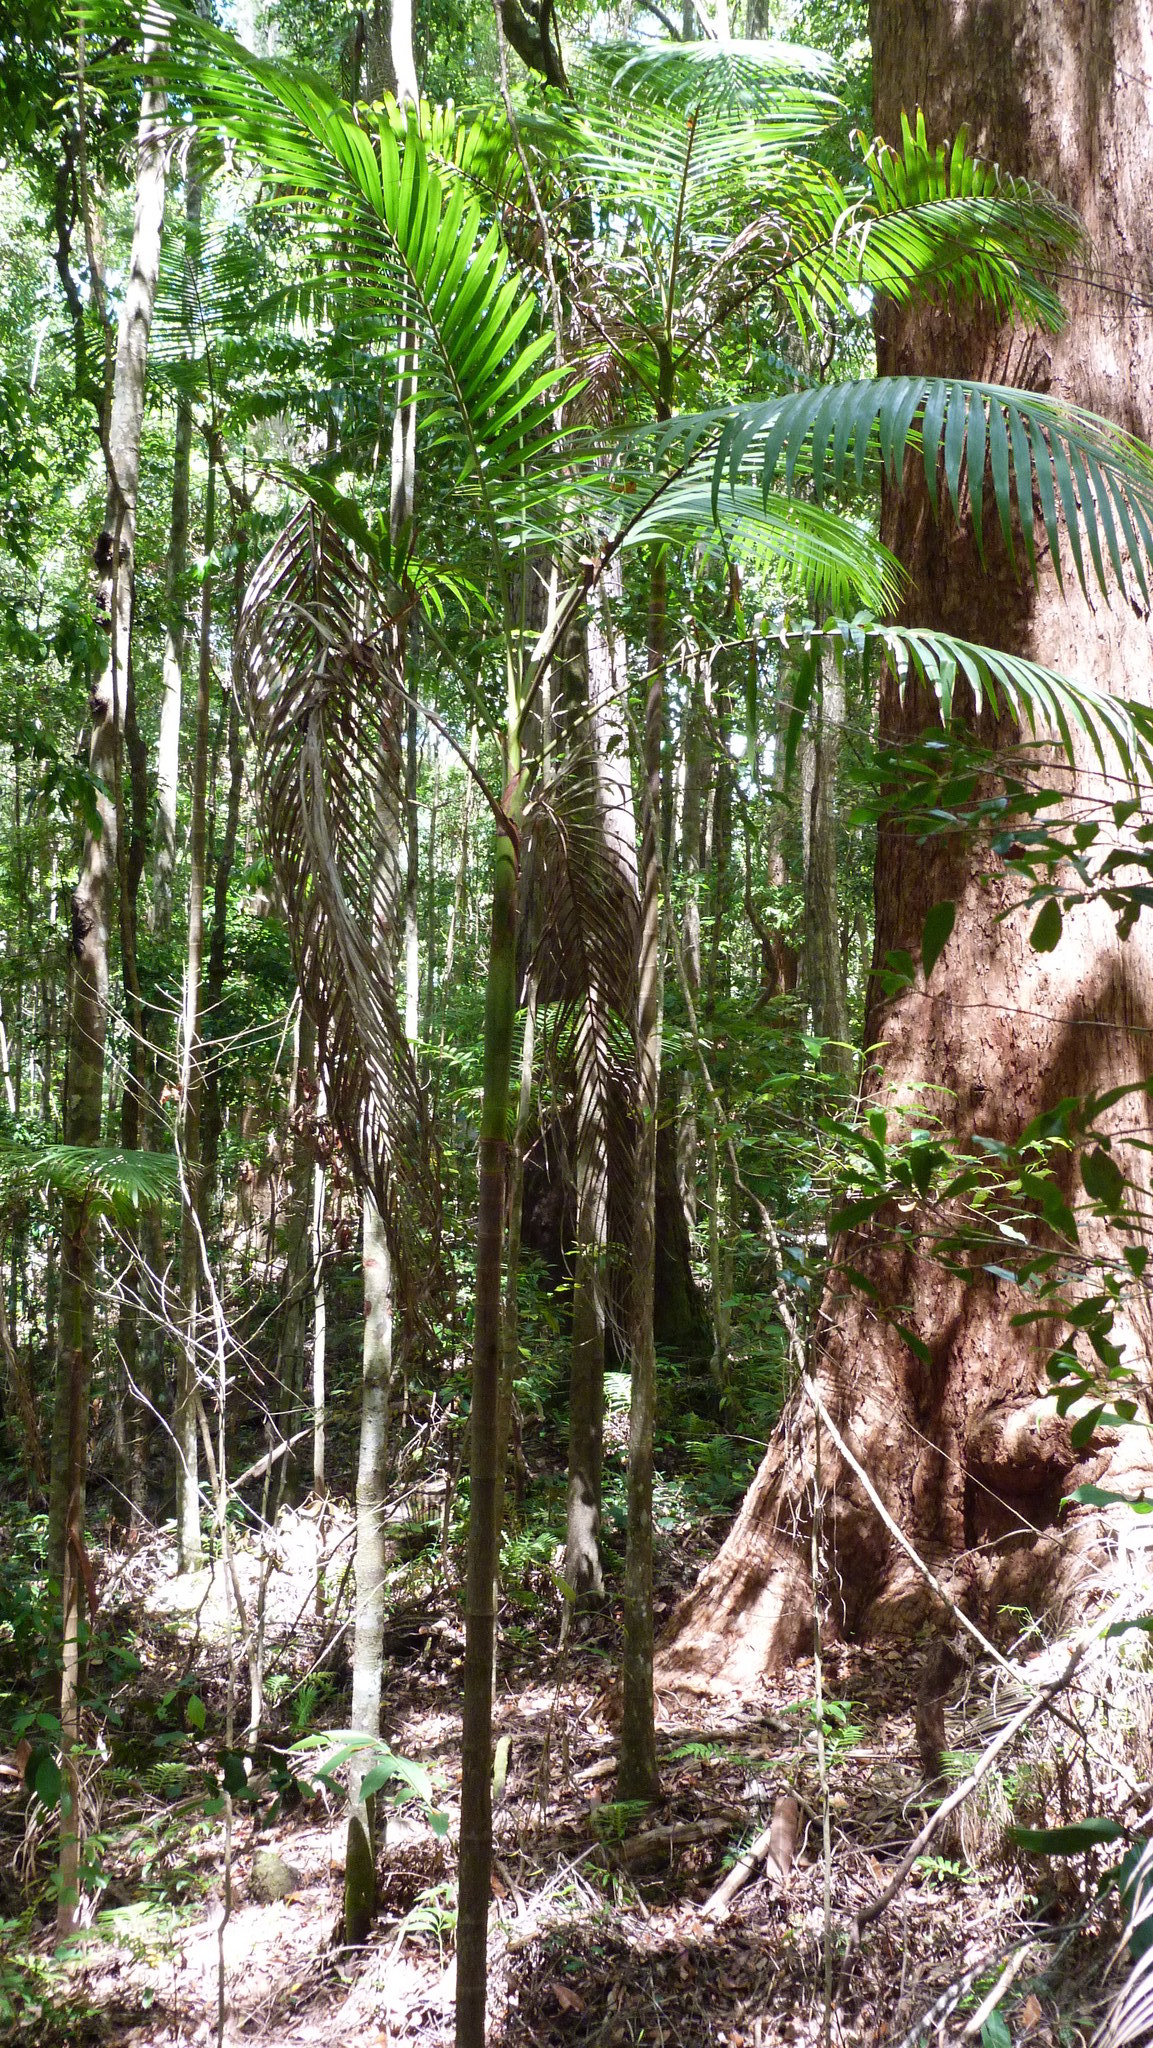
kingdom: Plantae
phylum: Tracheophyta
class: Liliopsida
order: Arecales
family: Arecaceae
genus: Archontophoenix
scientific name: Archontophoenix cunninghamiana
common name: Piccabeen bangalow palm
